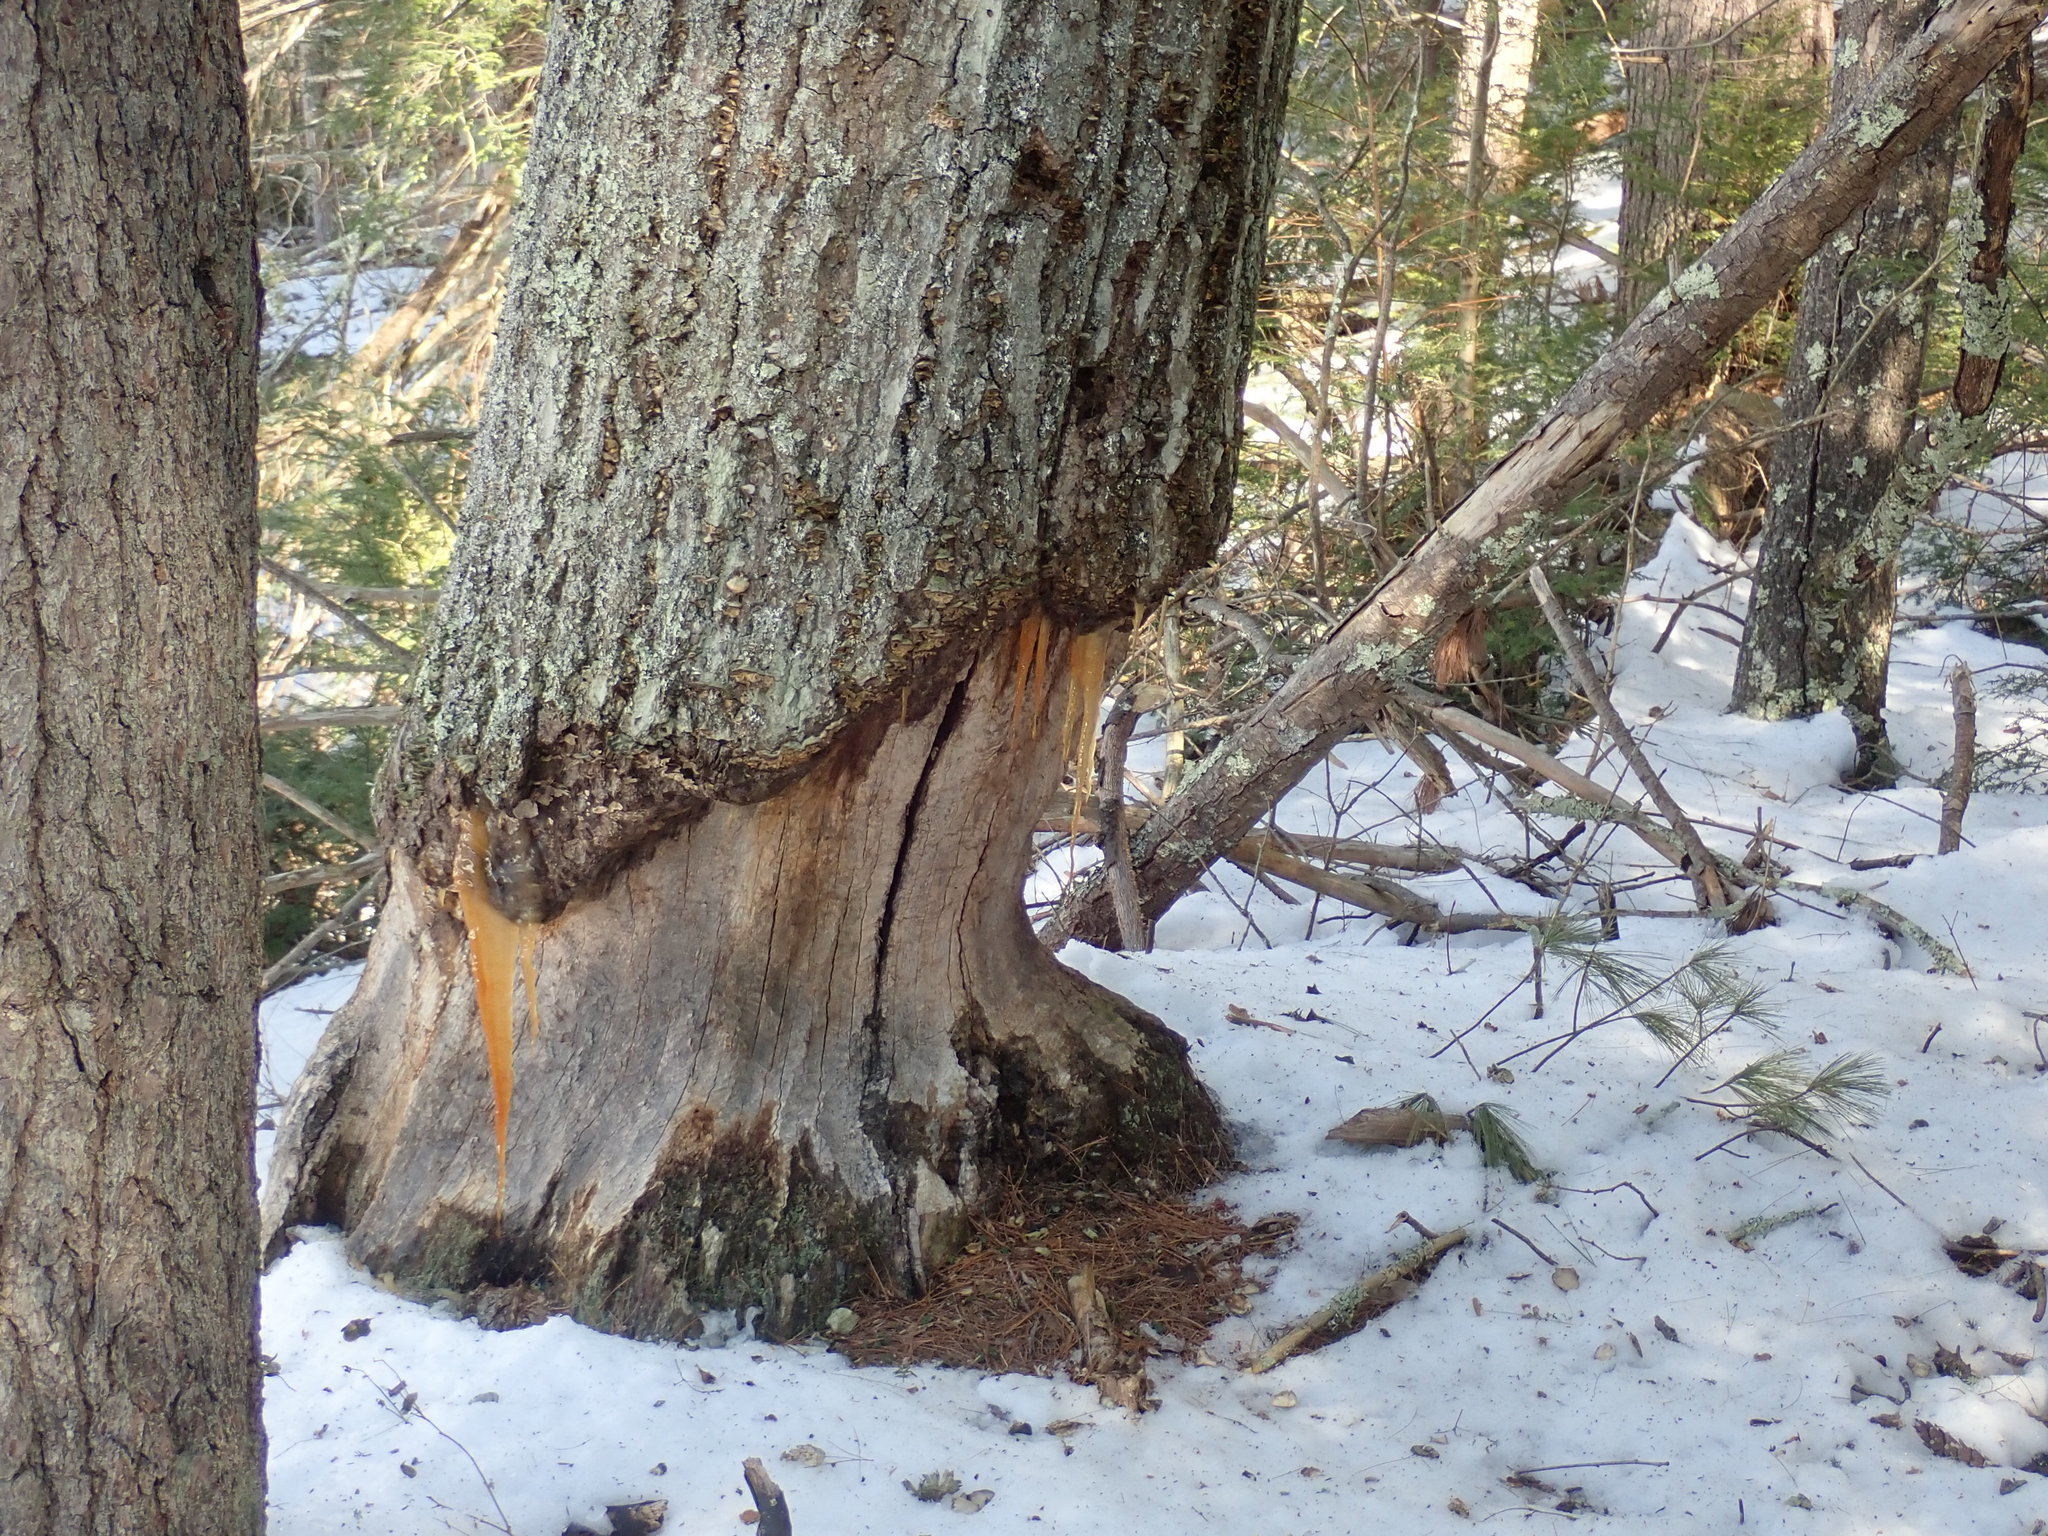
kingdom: Animalia
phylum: Chordata
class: Mammalia
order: Rodentia
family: Castoridae
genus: Castor
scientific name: Castor canadensis
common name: American beaver
